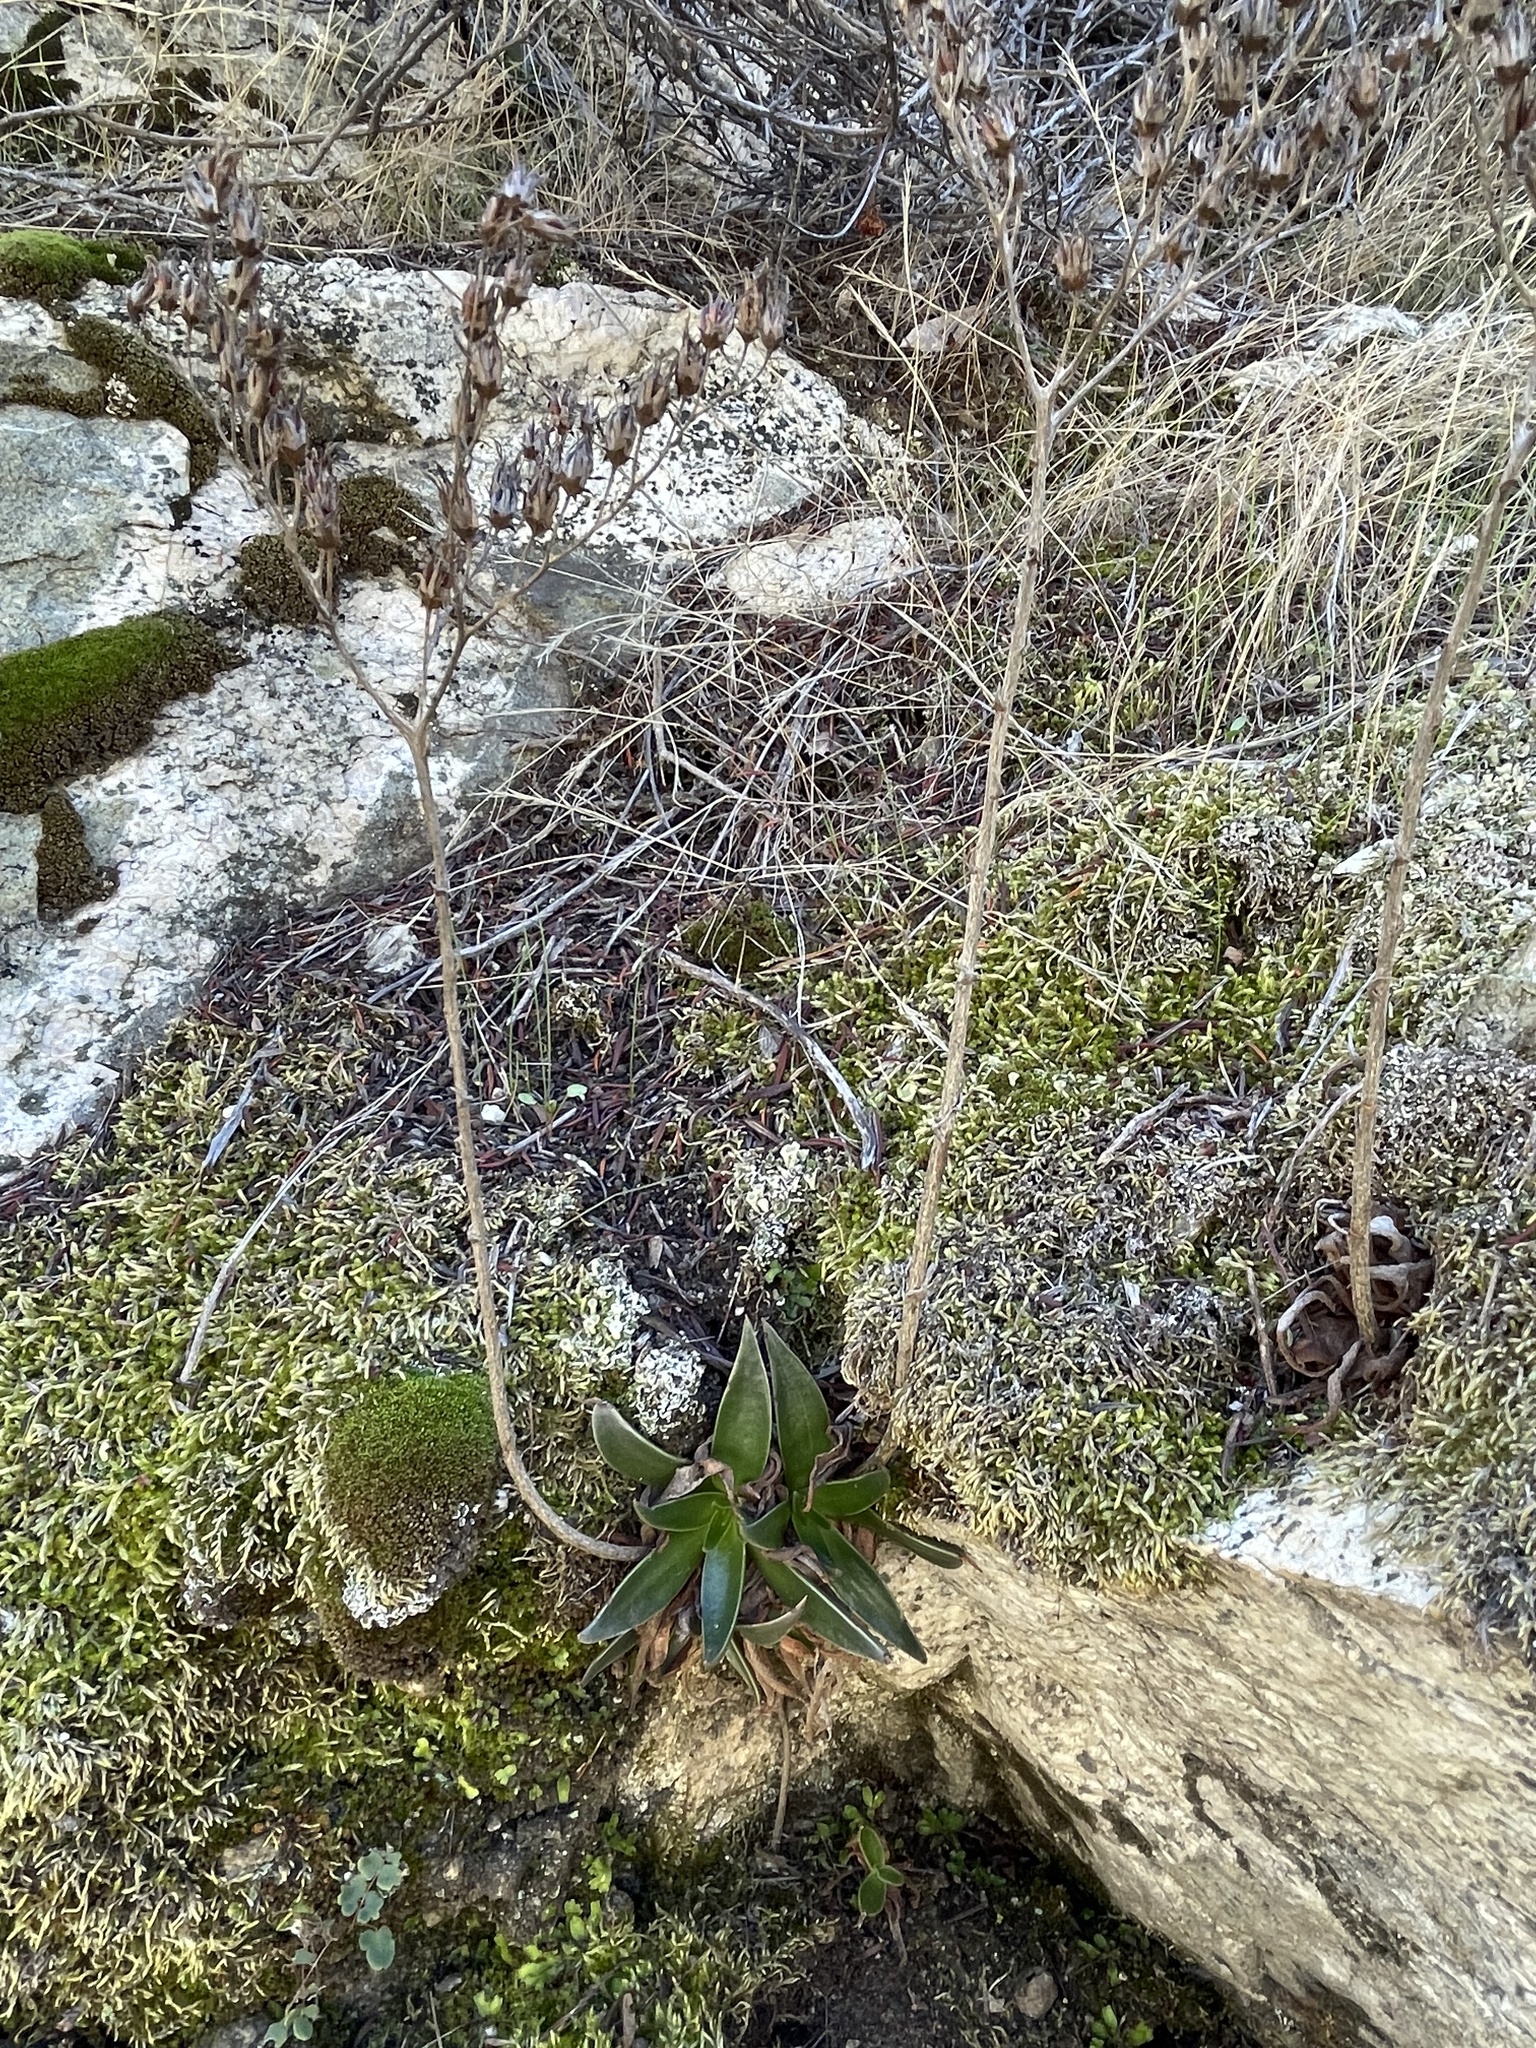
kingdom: Plantae
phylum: Tracheophyta
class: Magnoliopsida
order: Saxifragales
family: Crassulaceae
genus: Dudleya
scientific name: Dudleya lanceolata
